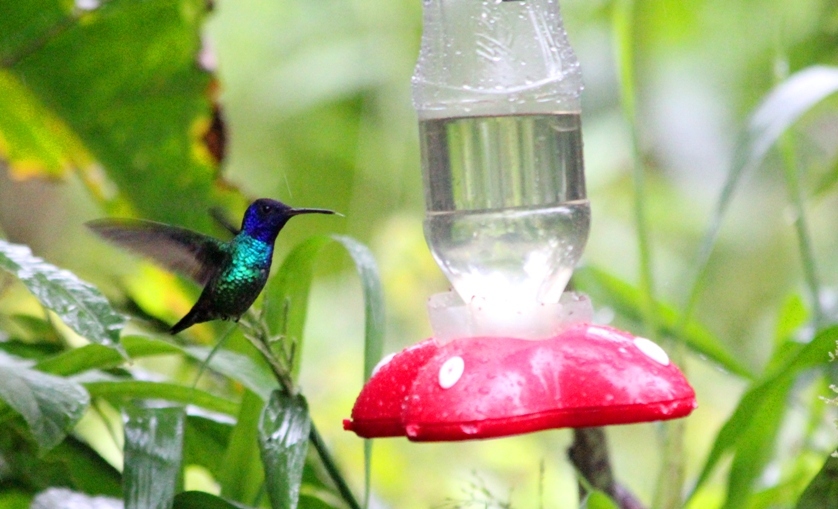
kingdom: Animalia
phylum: Chordata
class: Aves
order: Apodiformes
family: Trochilidae
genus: Chrysuronia
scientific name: Chrysuronia oenone
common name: Golden-tailed sapphire
